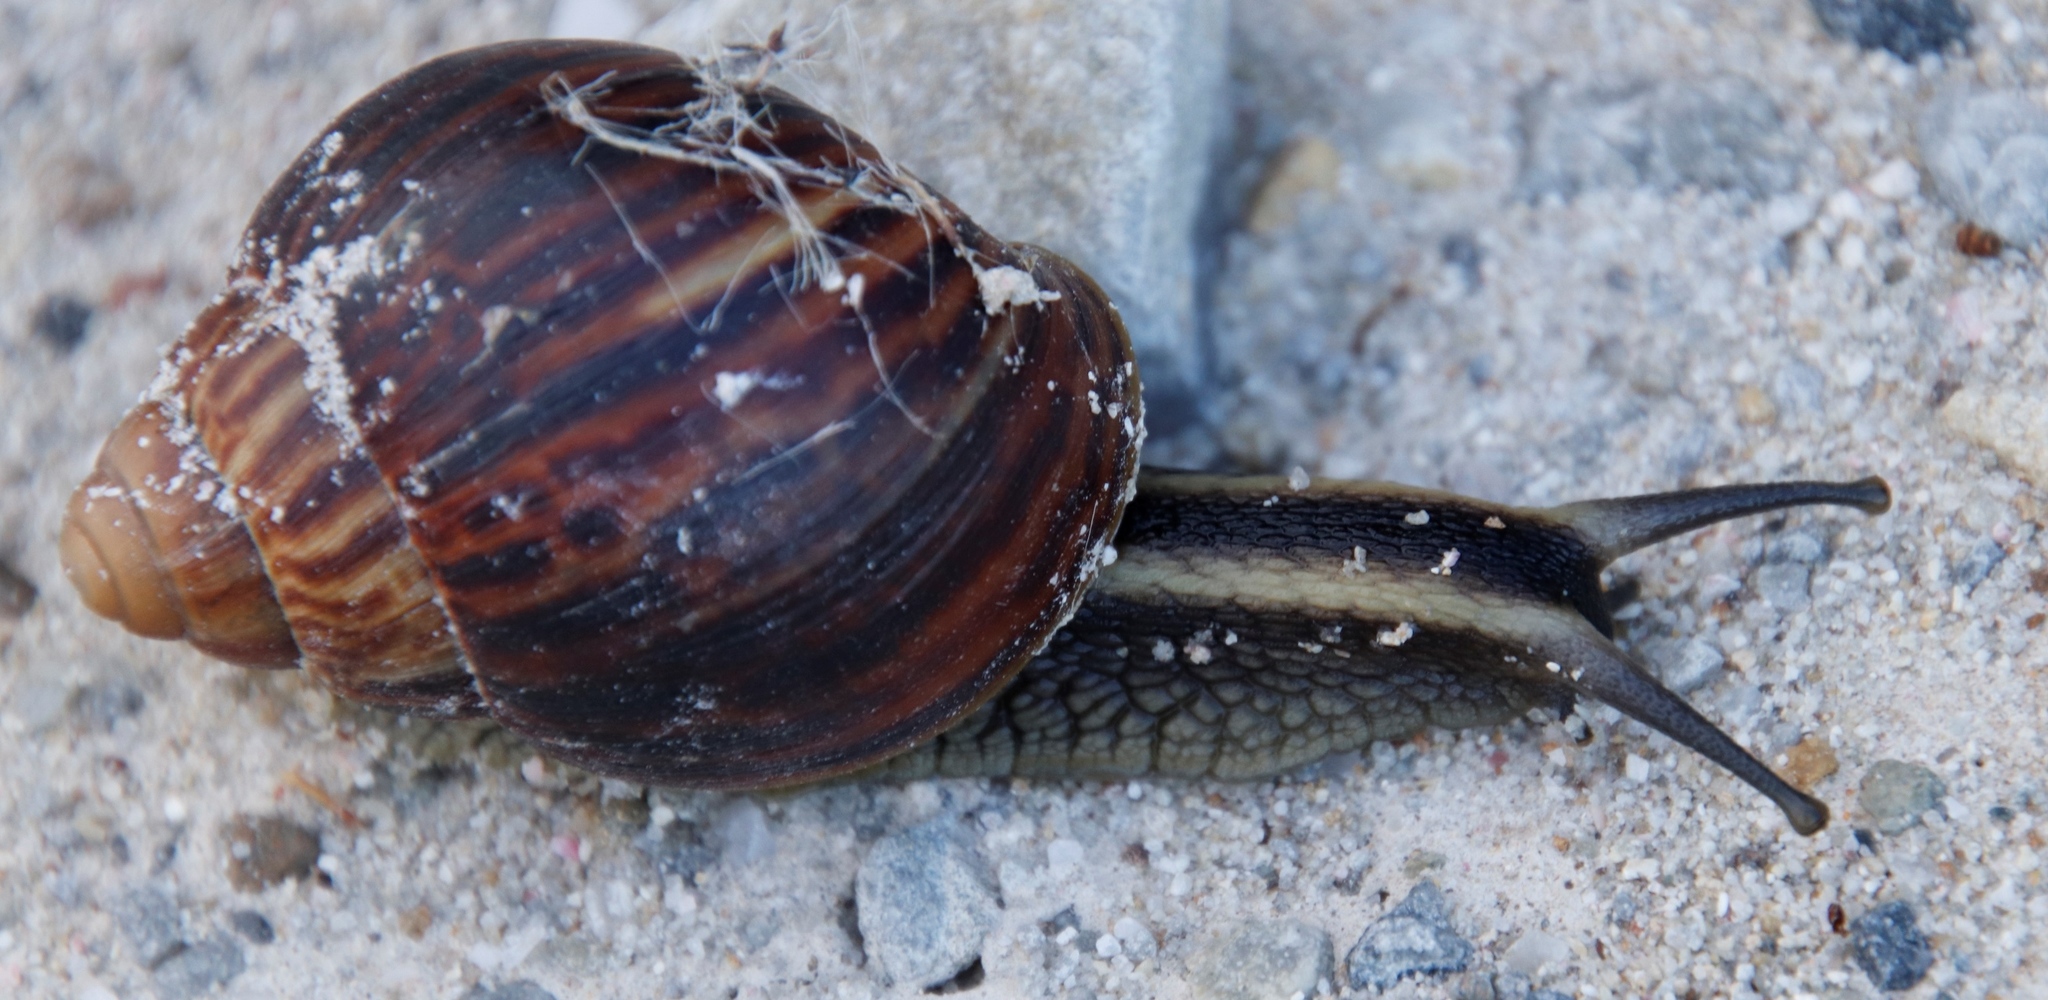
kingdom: Animalia
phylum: Mollusca
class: Gastropoda
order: Stylommatophora
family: Achatinidae
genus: Cochlitoma
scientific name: Cochlitoma zebra
